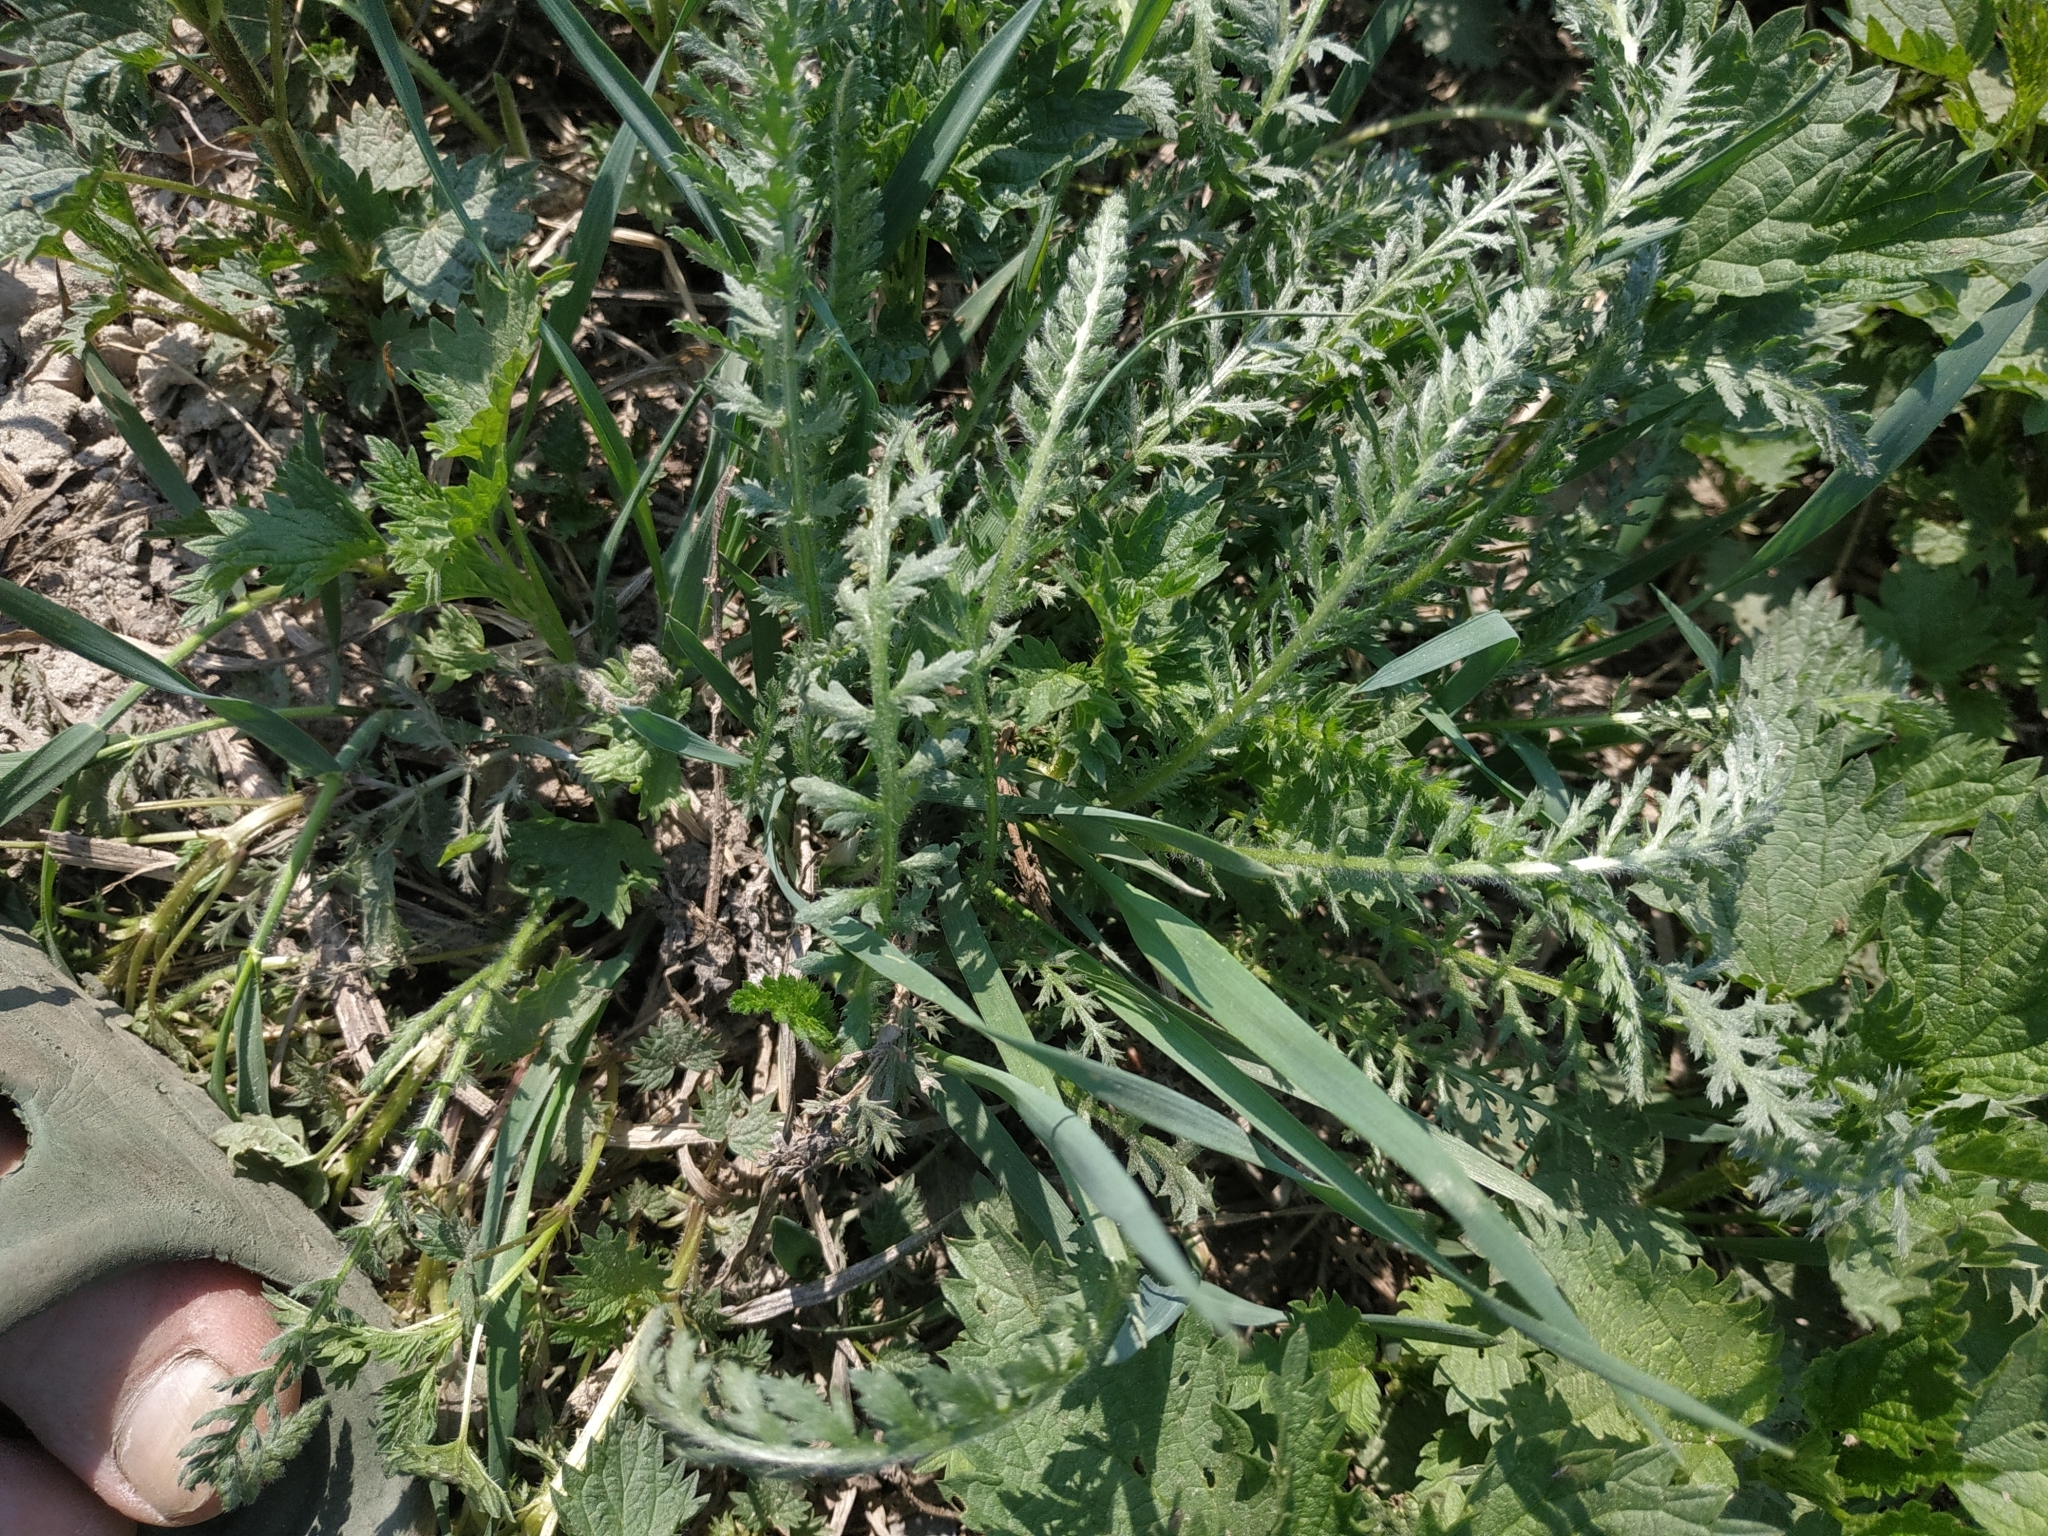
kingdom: Plantae
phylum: Tracheophyta
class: Magnoliopsida
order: Asterales
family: Asteraceae
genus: Achillea
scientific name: Achillea millefolium
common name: Yarrow
